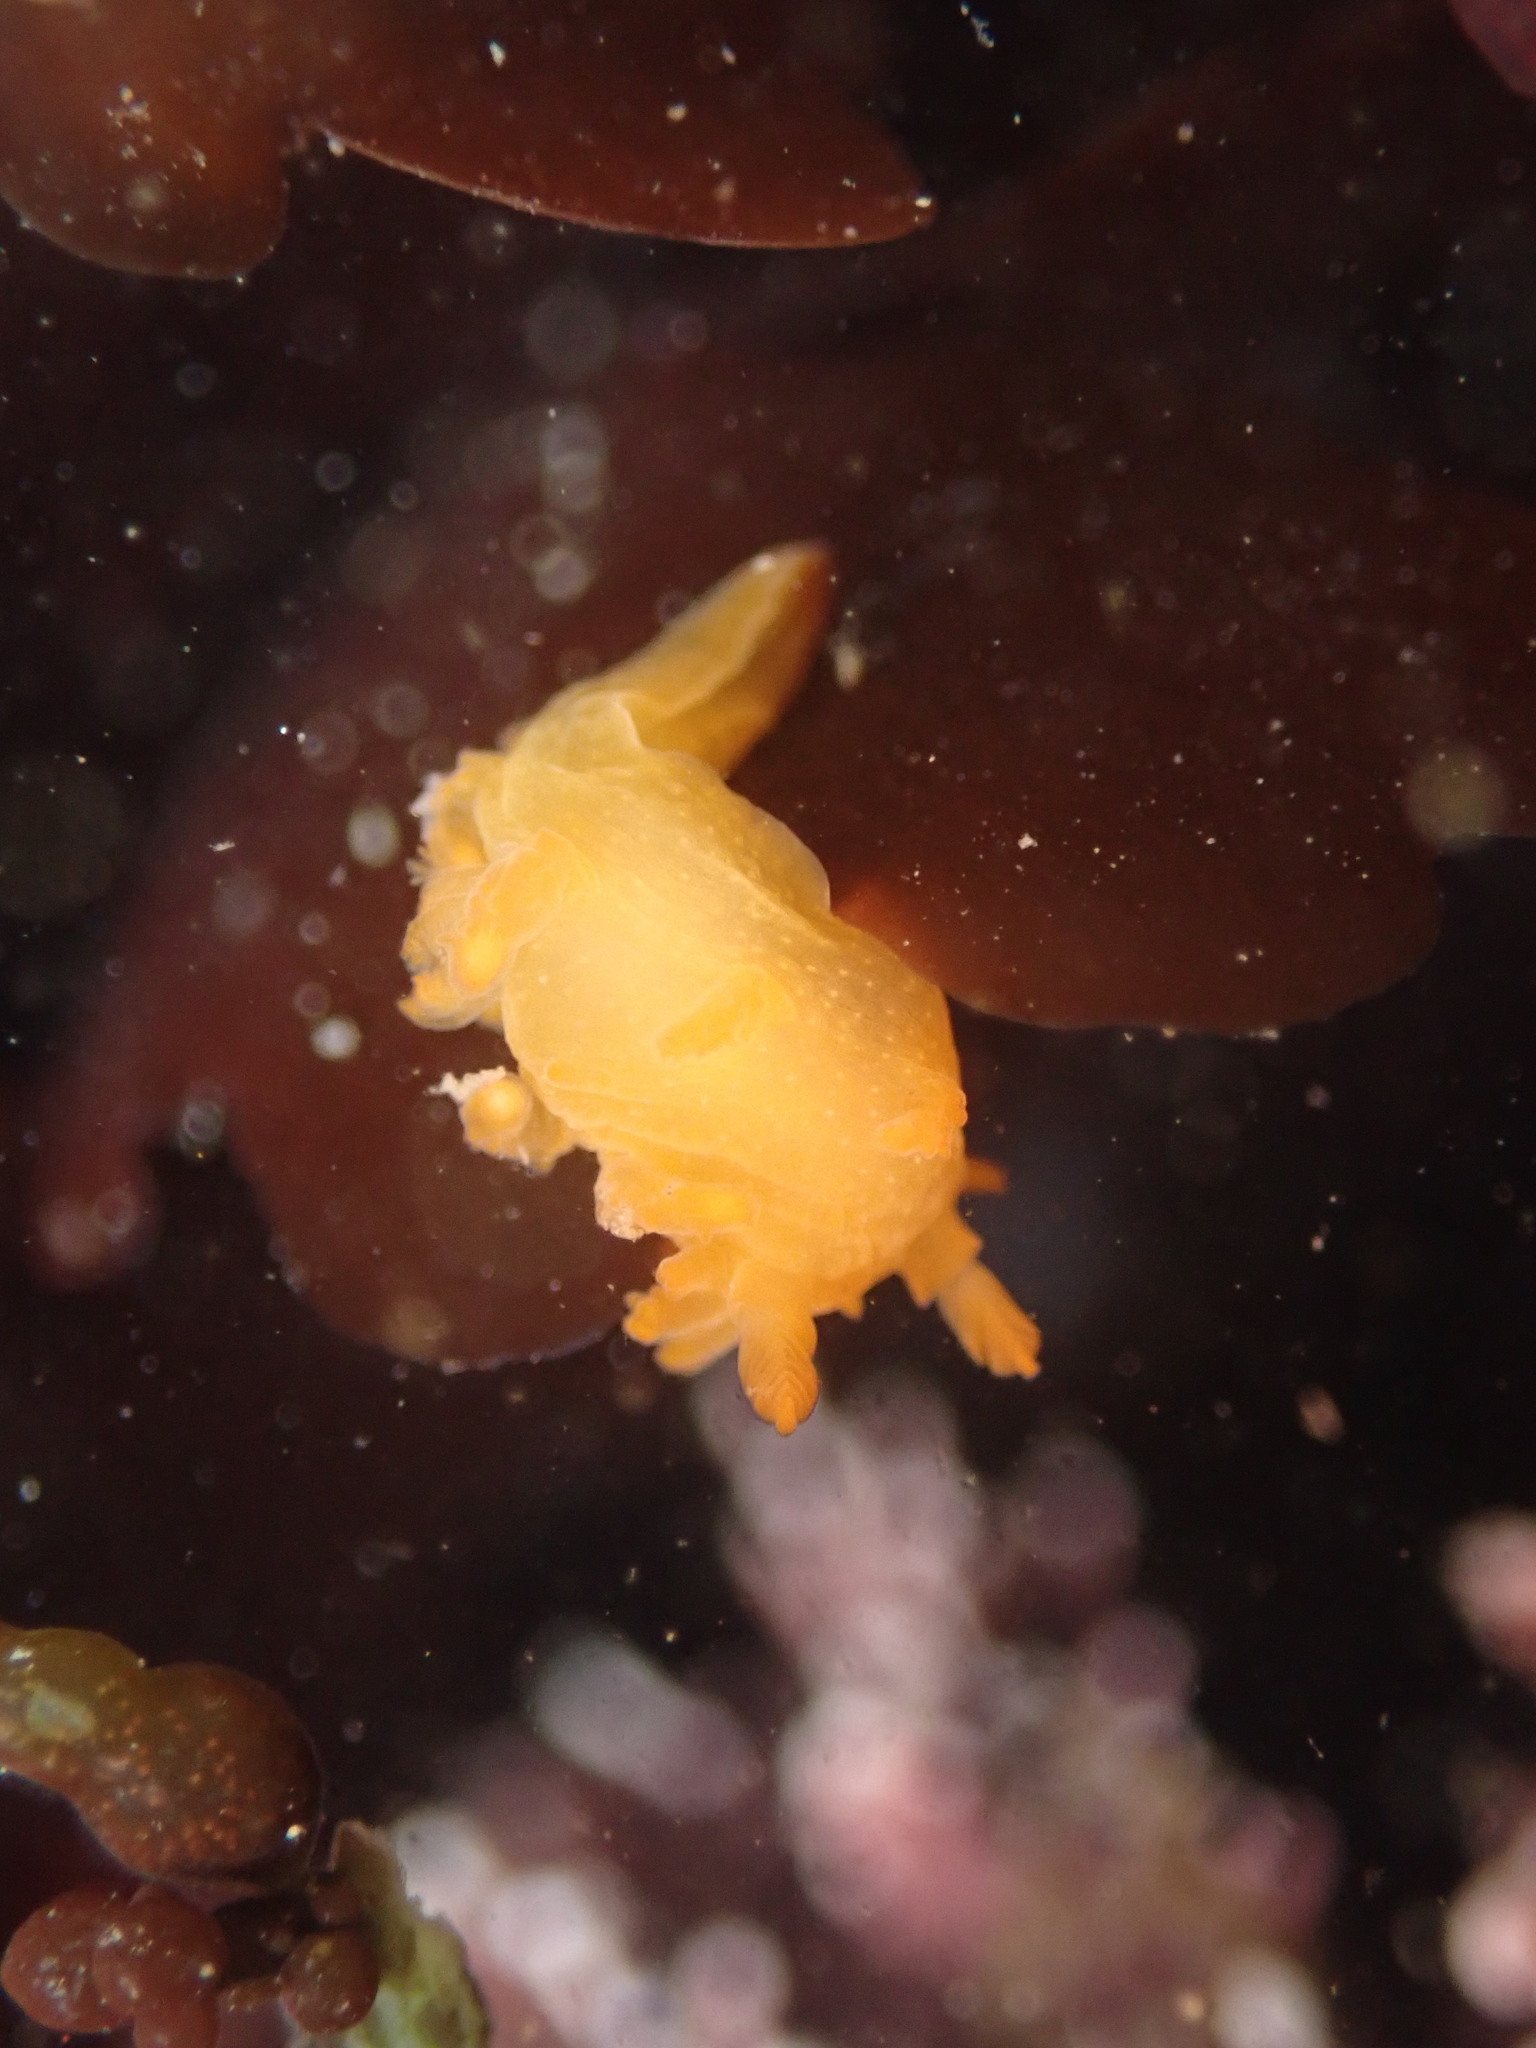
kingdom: Animalia
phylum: Mollusca
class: Gastropoda
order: Nudibranchia
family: Polyceridae
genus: Triopha
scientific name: Triopha maculata
